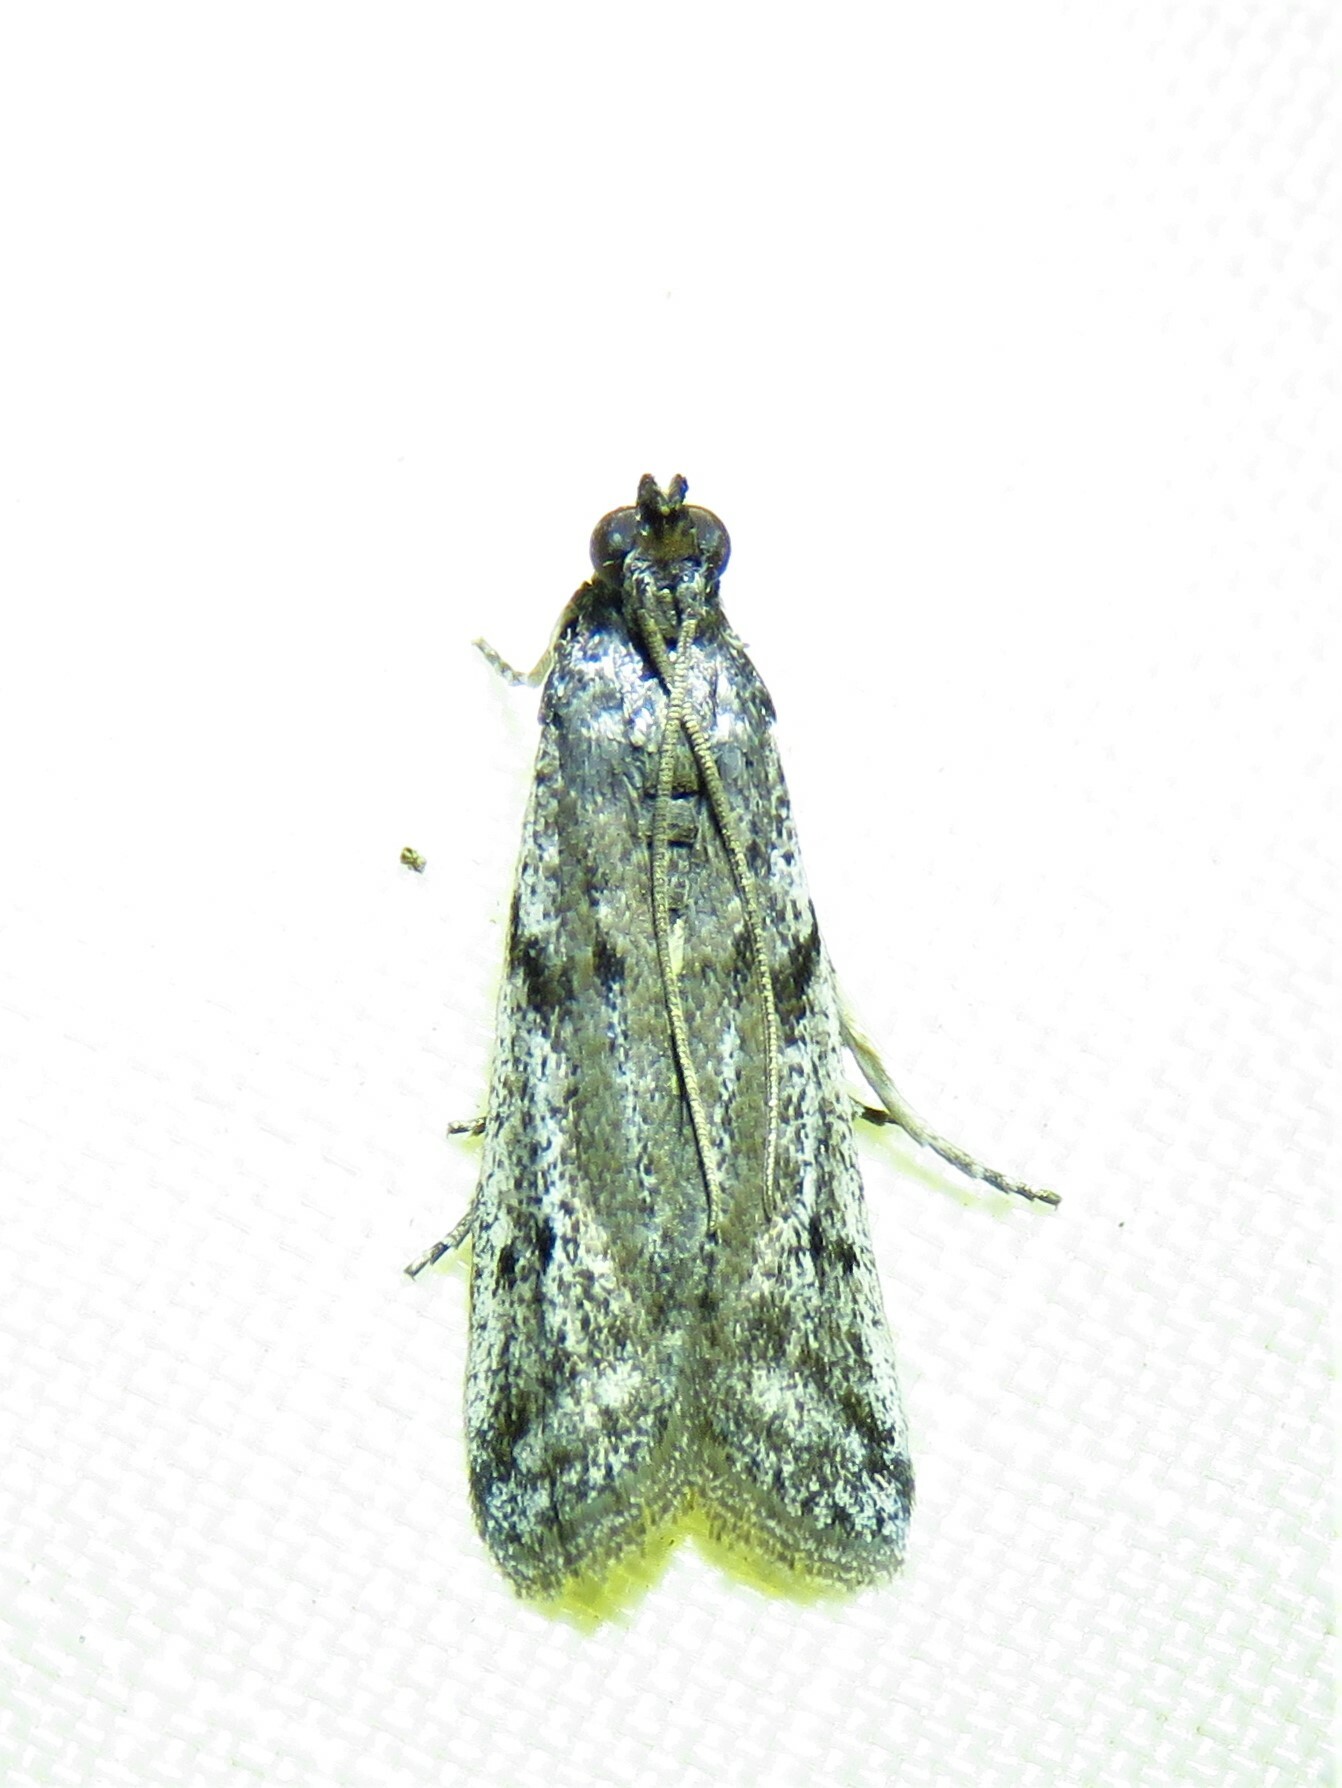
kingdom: Animalia
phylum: Arthropoda
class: Insecta
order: Lepidoptera
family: Pyralidae
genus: Phycitodes
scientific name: Phycitodes mucidellus
